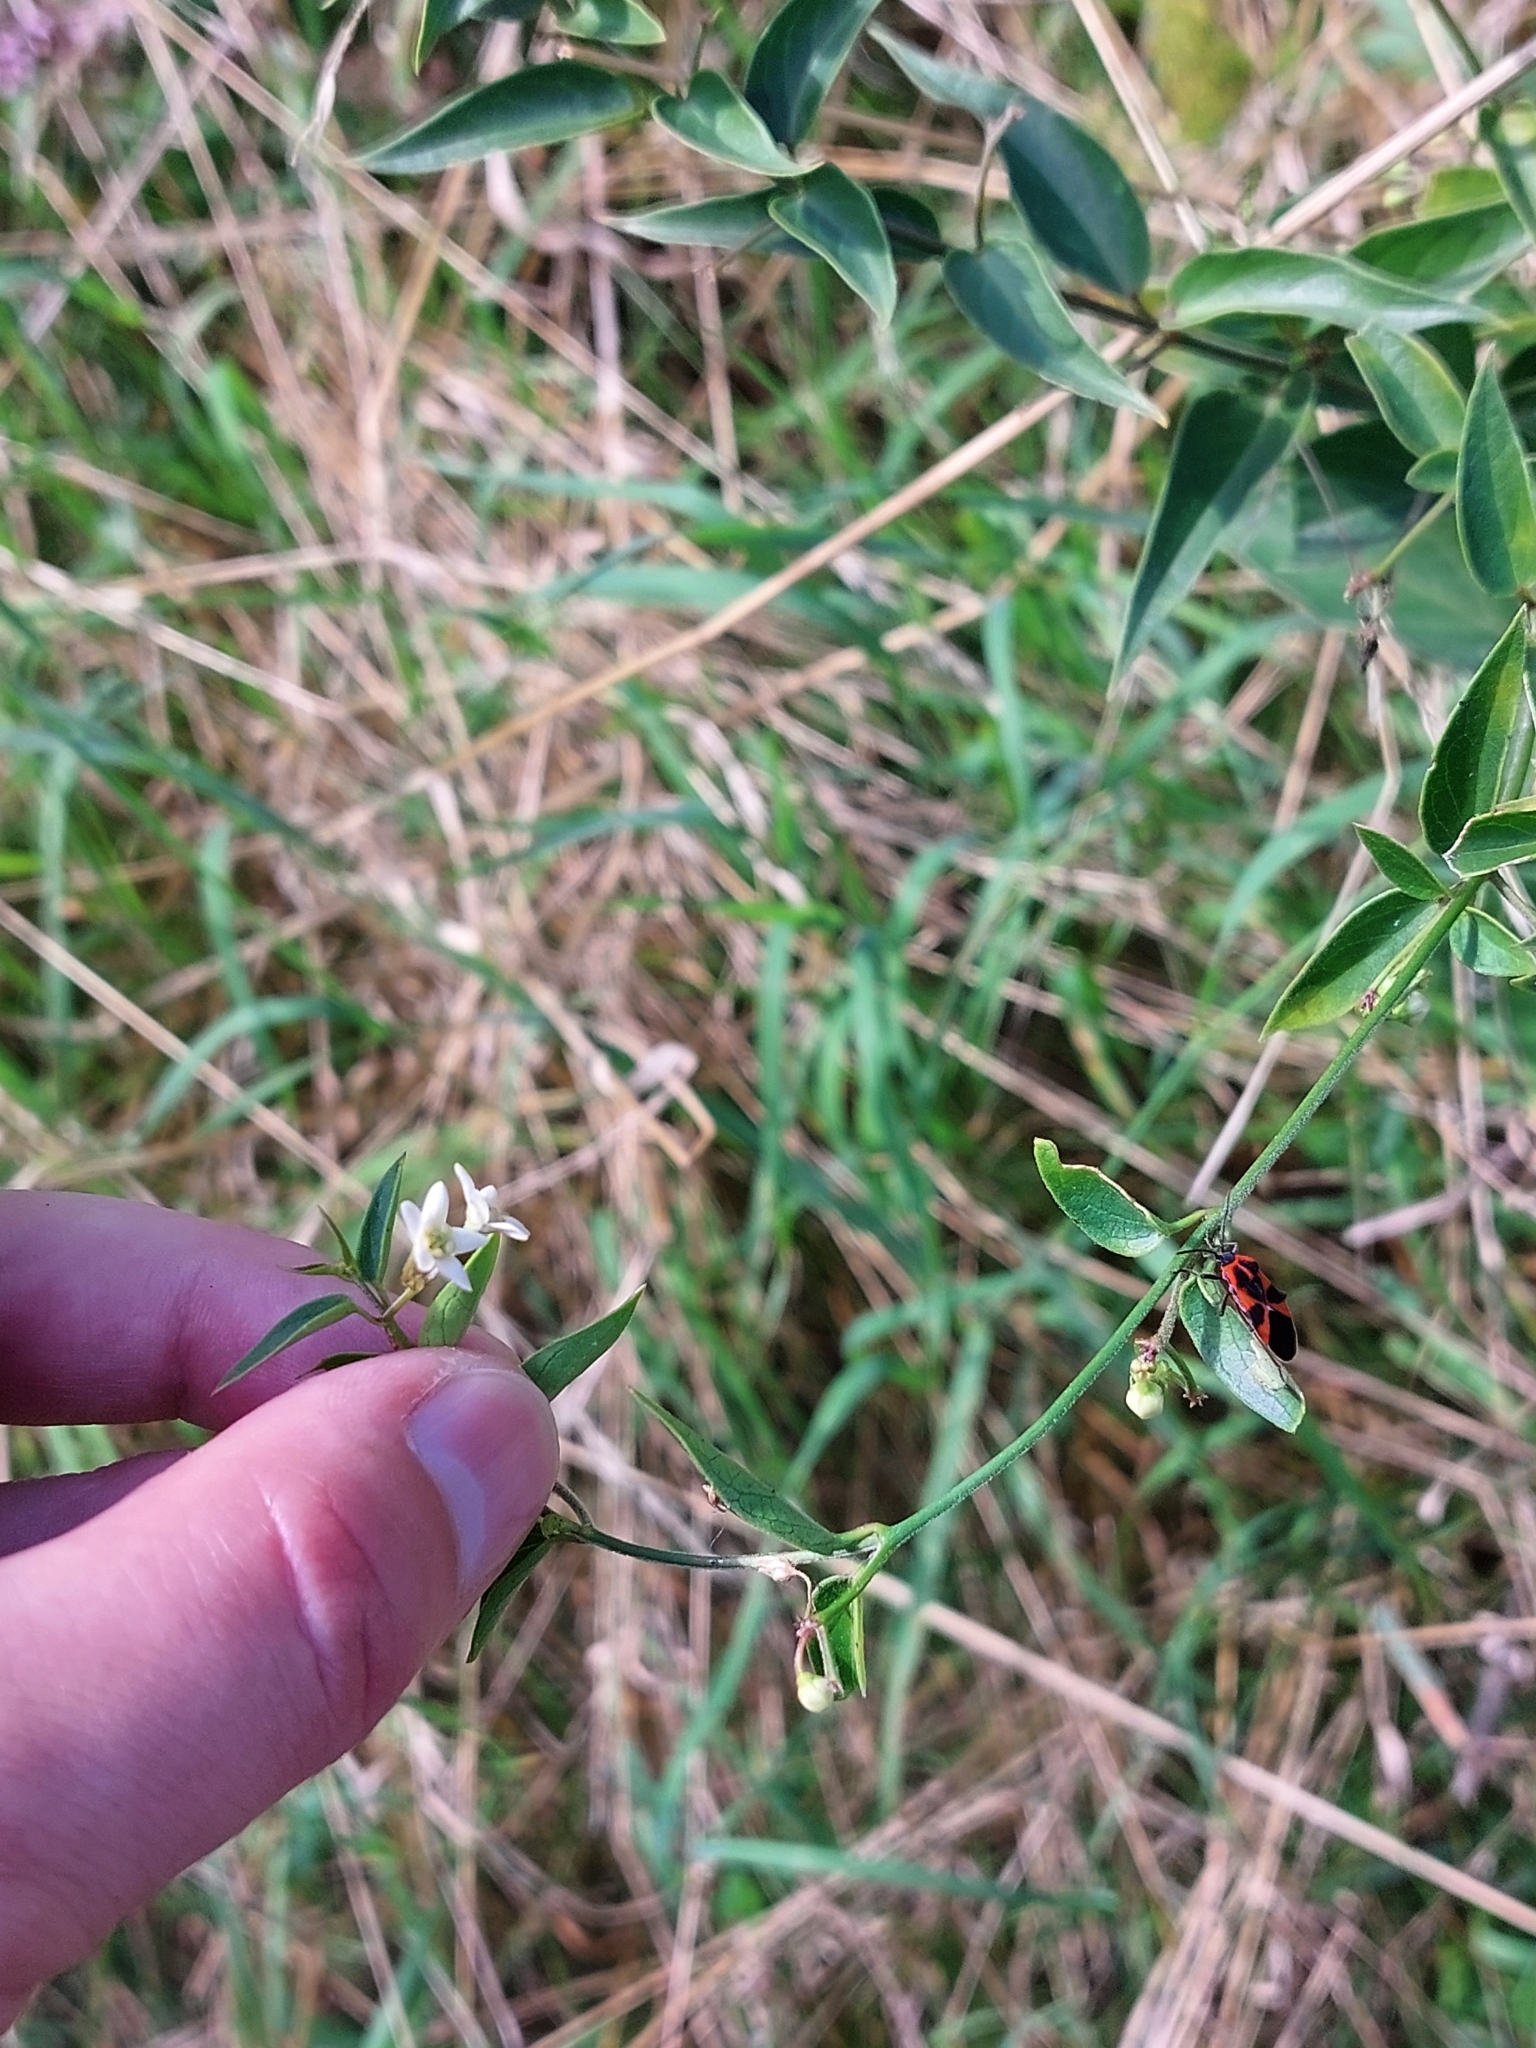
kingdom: Animalia
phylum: Arthropoda
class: Insecta
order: Hemiptera
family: Lygaeidae
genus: Tropidothorax
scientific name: Tropidothorax leucopterus
